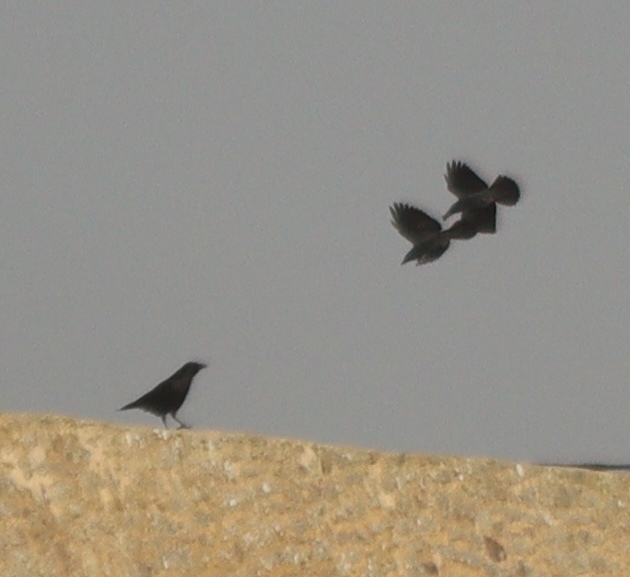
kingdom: Animalia
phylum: Chordata
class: Aves
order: Passeriformes
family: Corvidae
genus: Corvus
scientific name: Corvus corone
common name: Carrion crow
